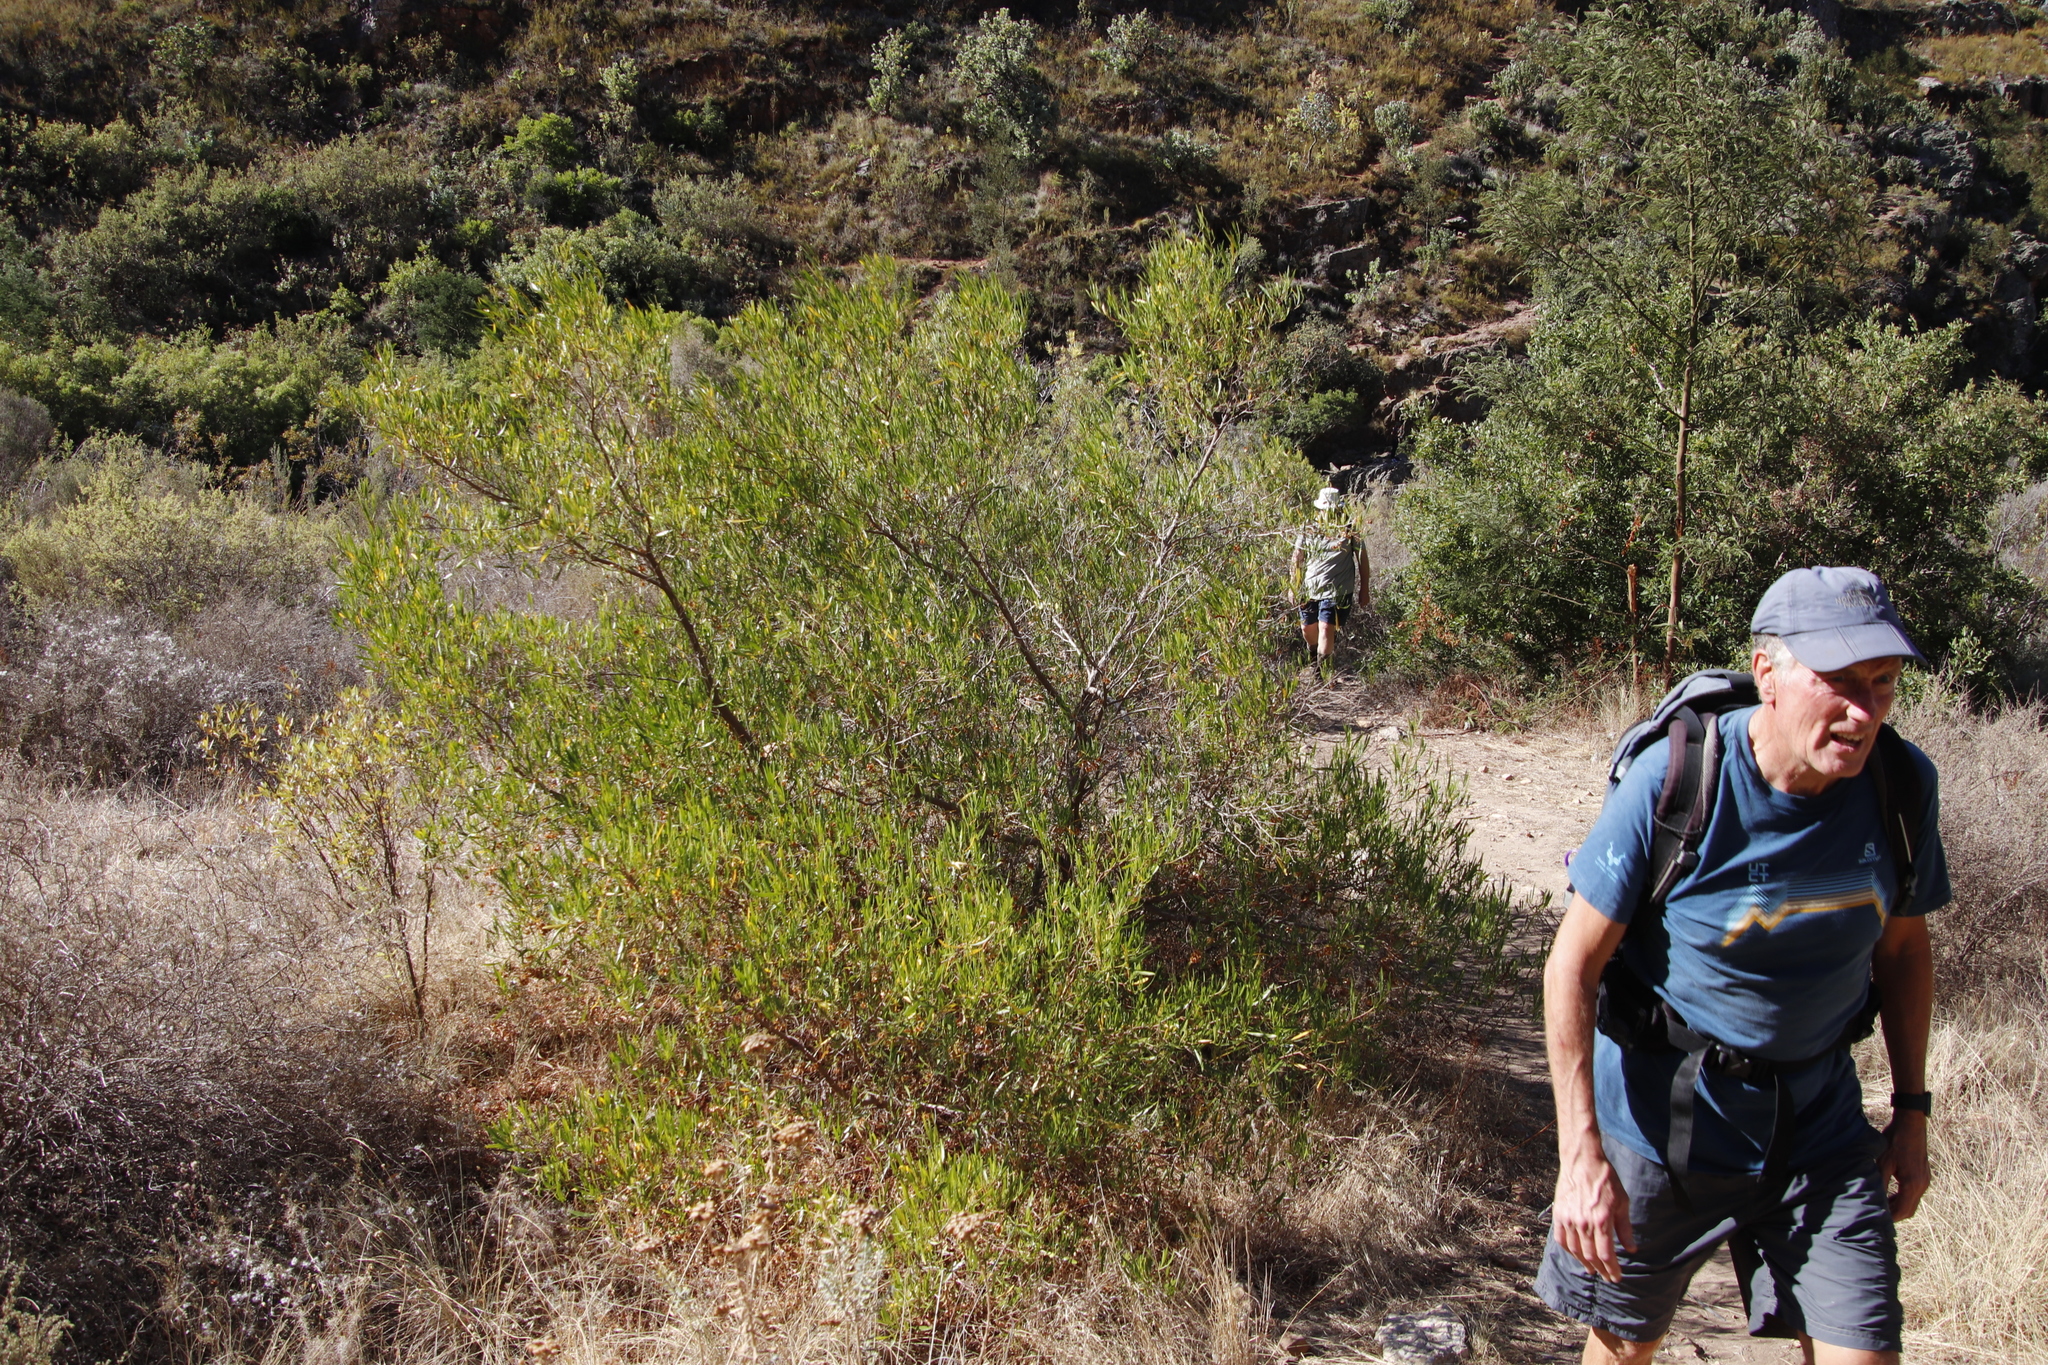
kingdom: Plantae
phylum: Tracheophyta
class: Magnoliopsida
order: Sapindales
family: Sapindaceae
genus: Dodonaea
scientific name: Dodonaea viscosa
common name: Hopbush
